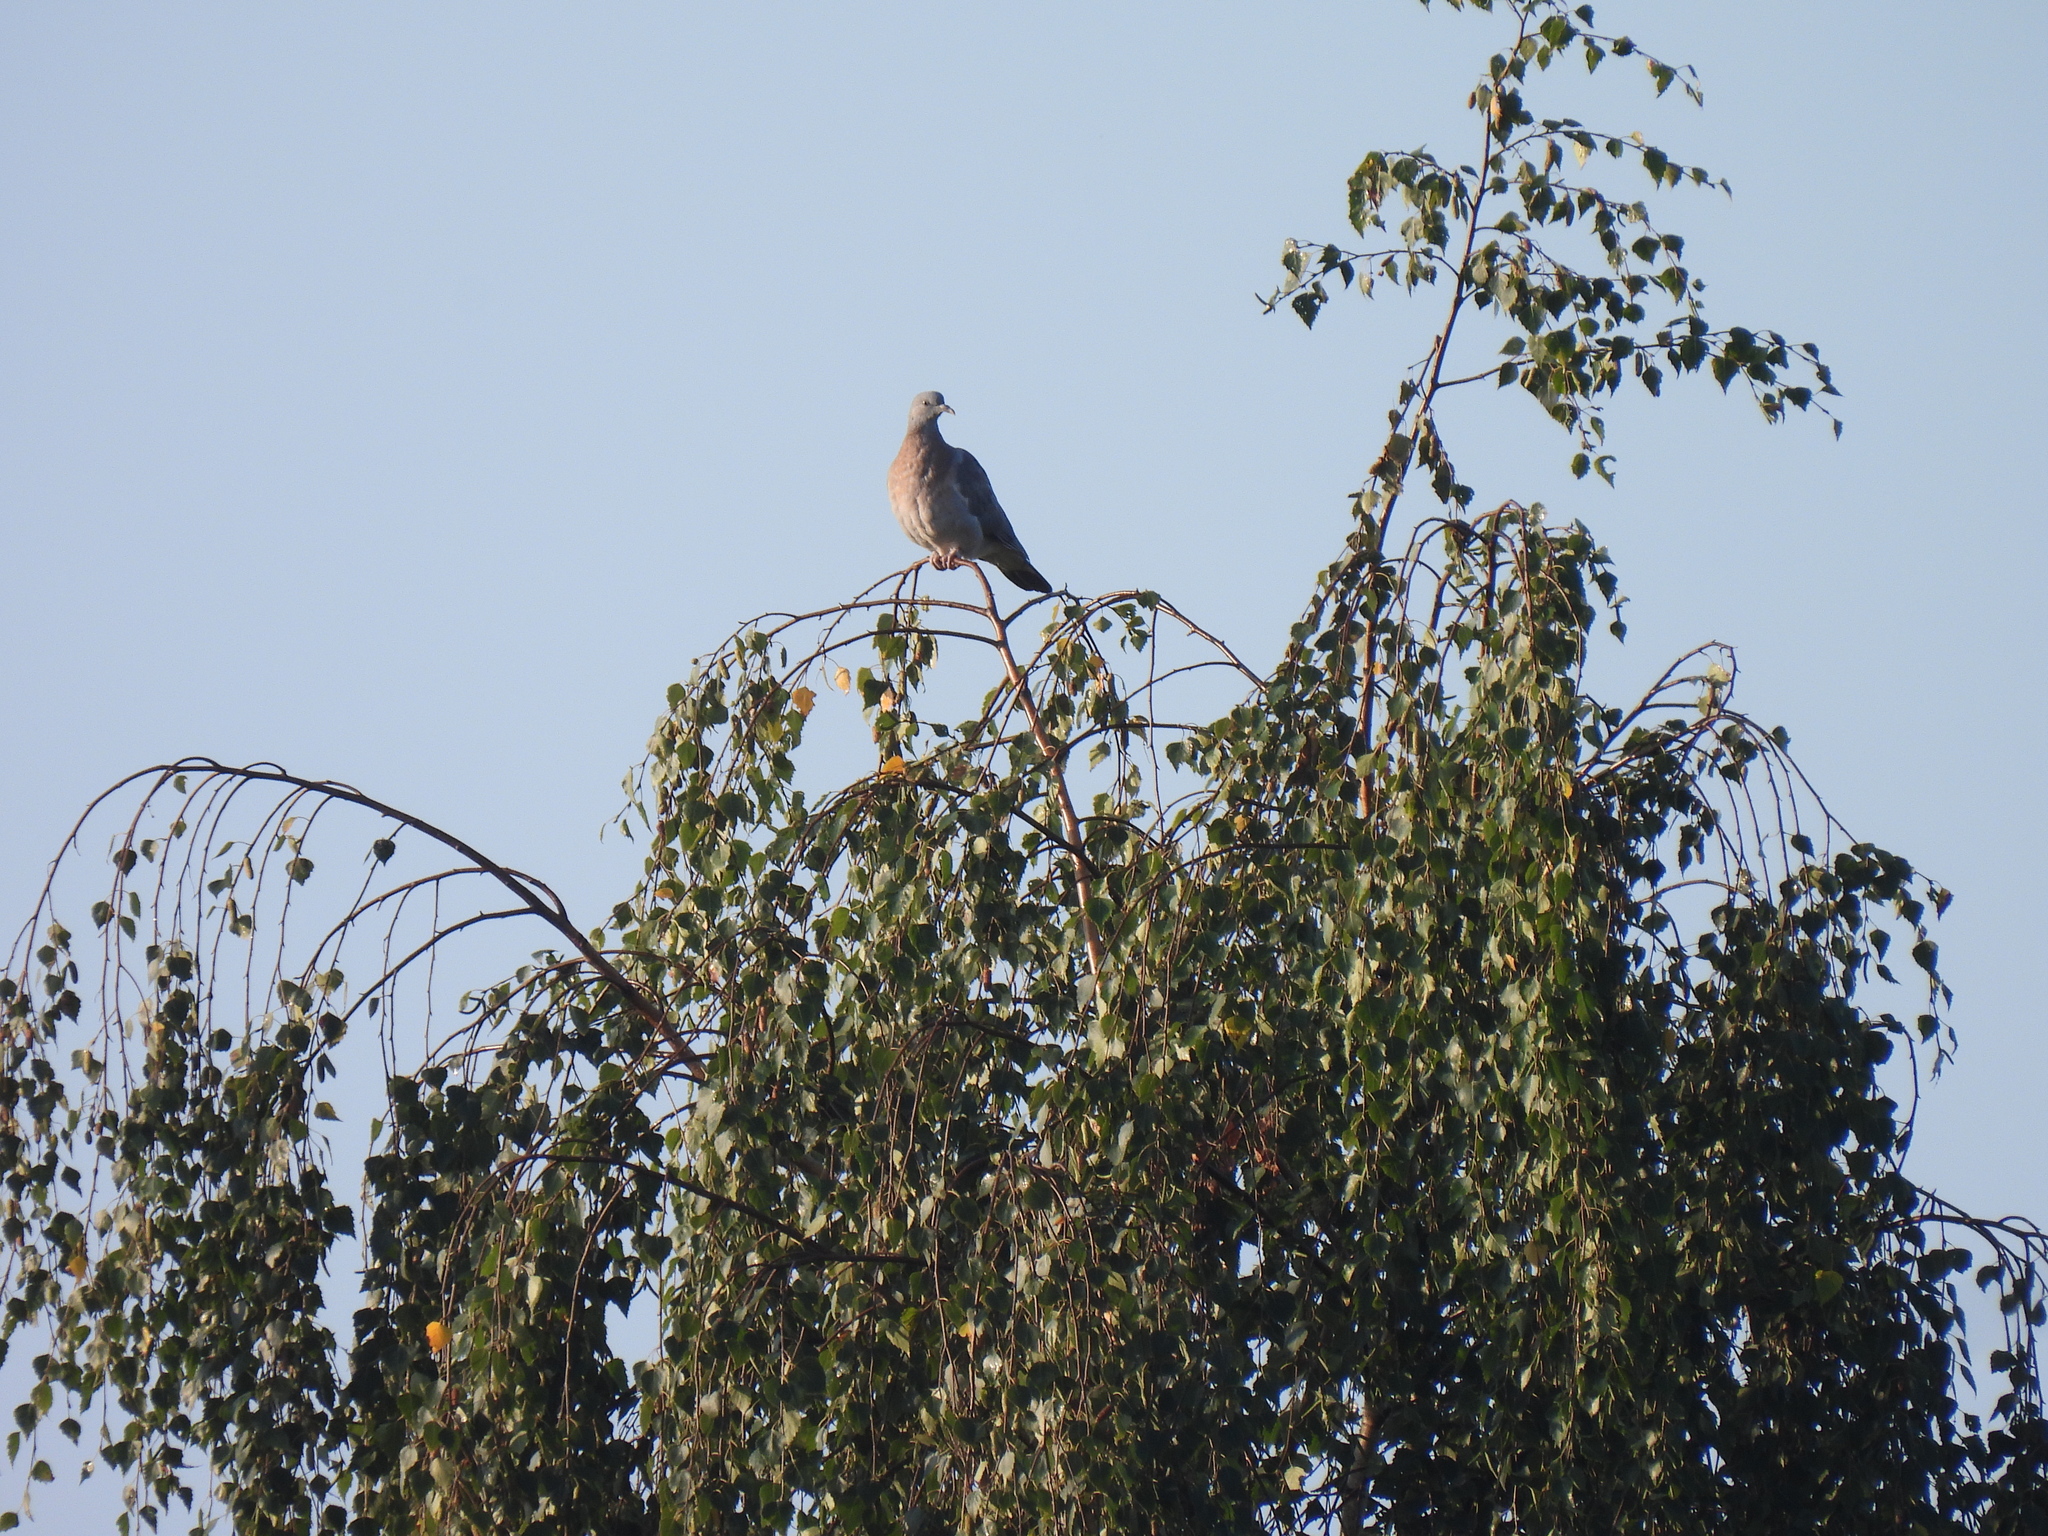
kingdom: Animalia
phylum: Chordata
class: Aves
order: Columbiformes
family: Columbidae
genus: Columba
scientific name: Columba palumbus
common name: Common wood pigeon
